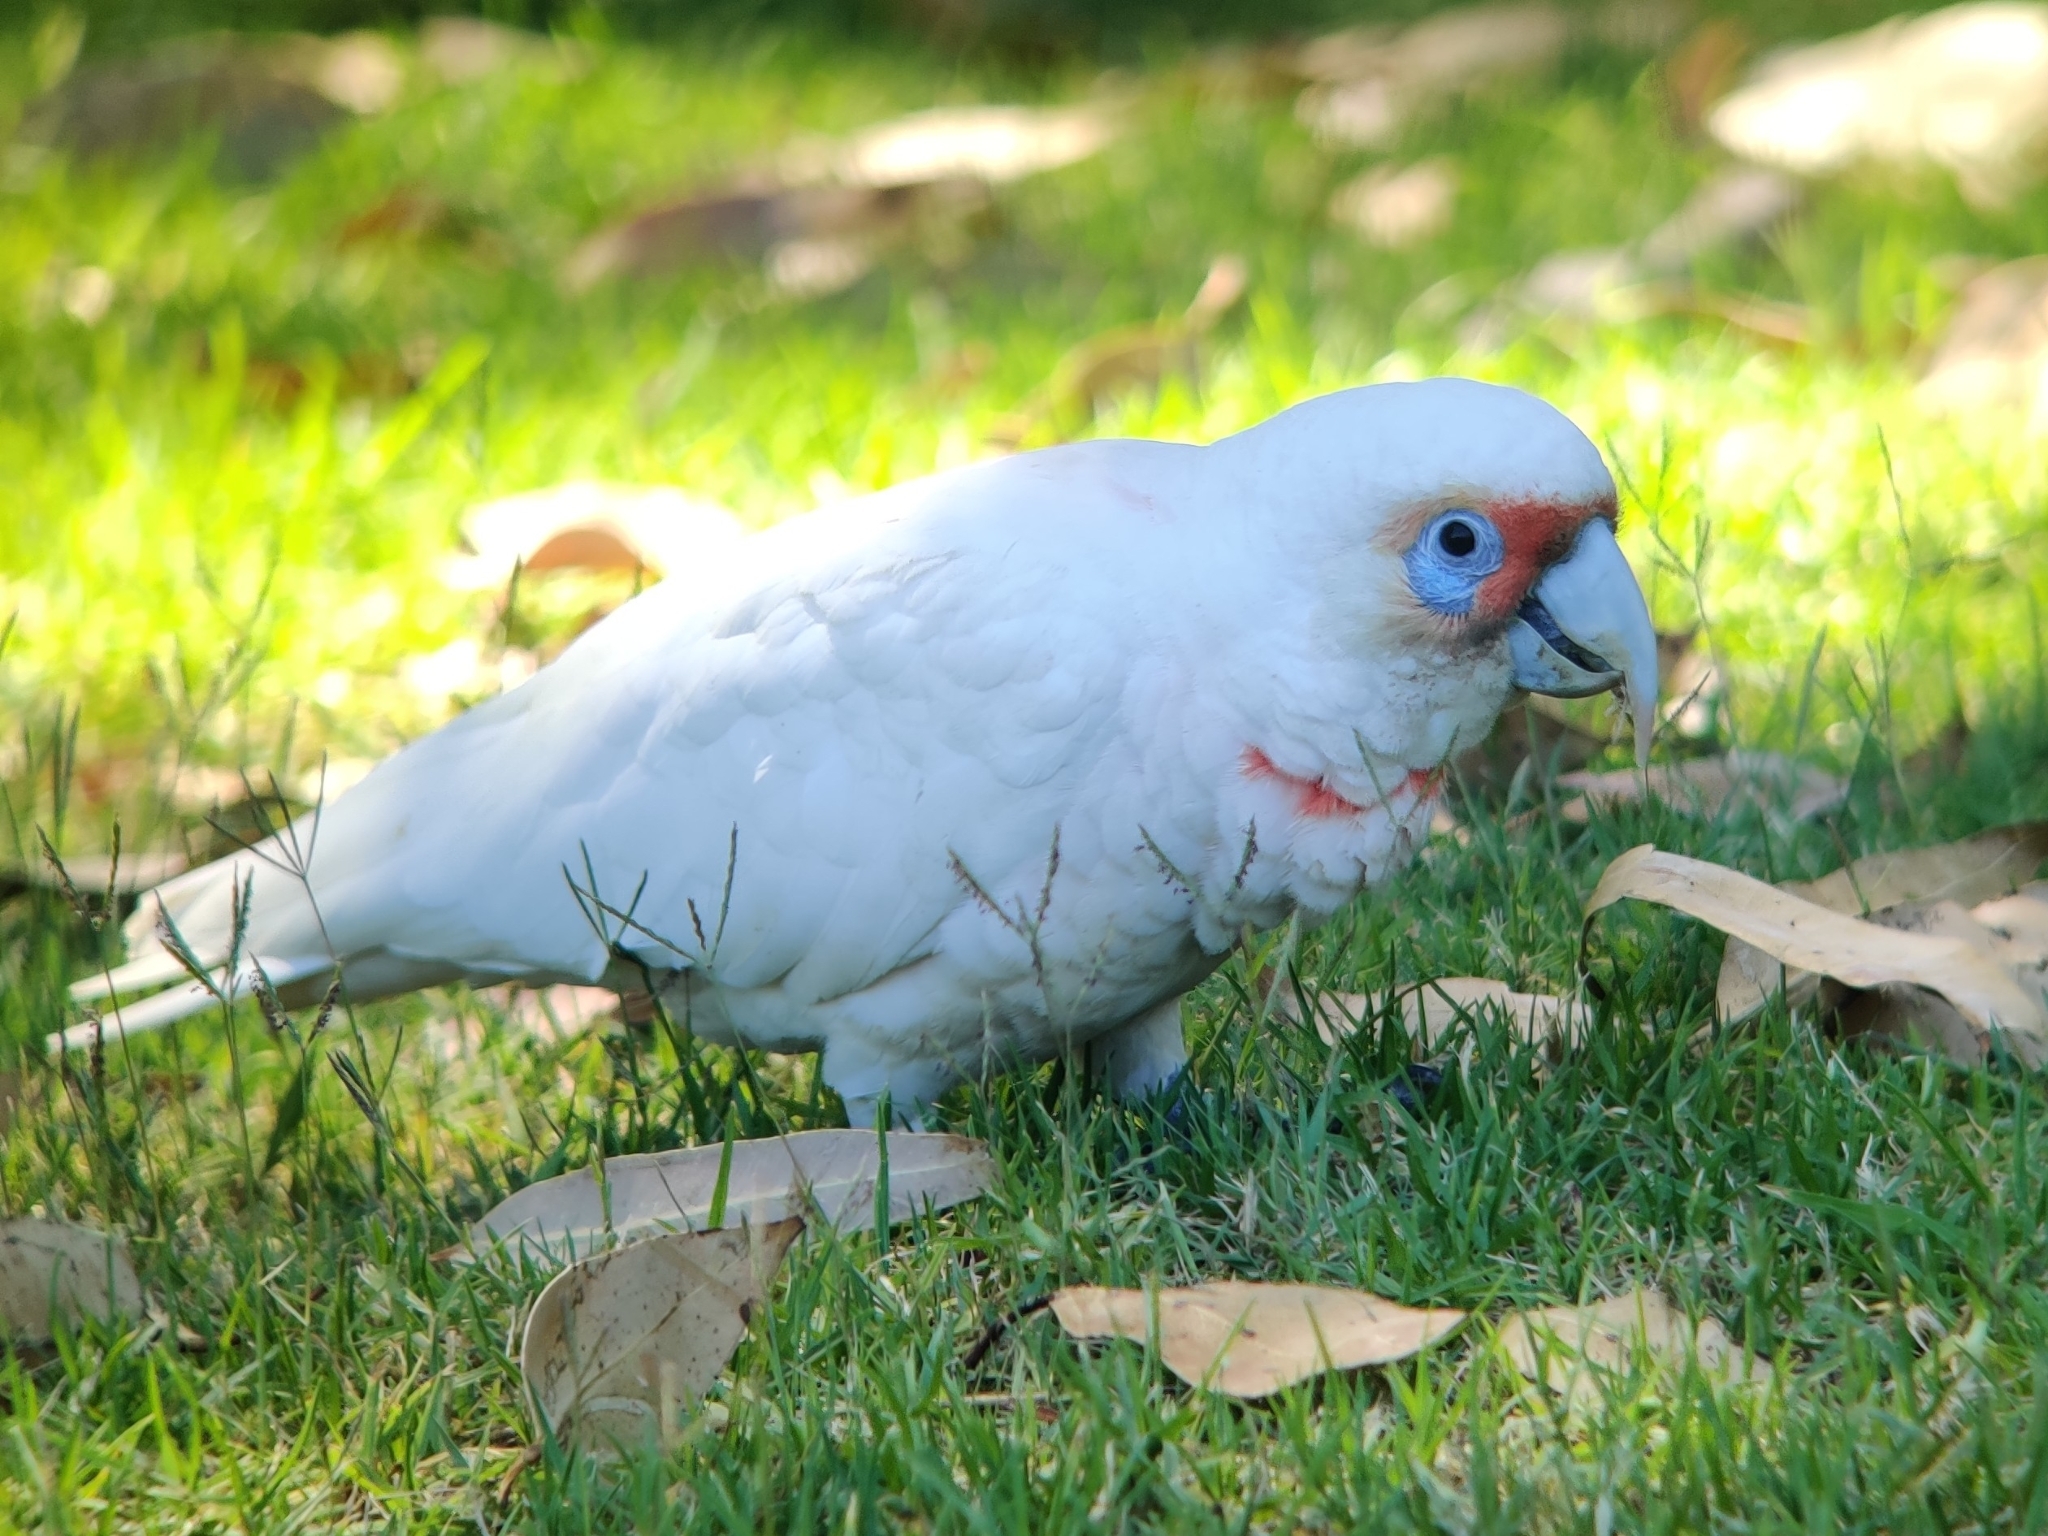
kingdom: Animalia
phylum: Chordata
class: Aves
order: Psittaciformes
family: Psittacidae
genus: Cacatua
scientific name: Cacatua tenuirostris
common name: Long-billed corella
